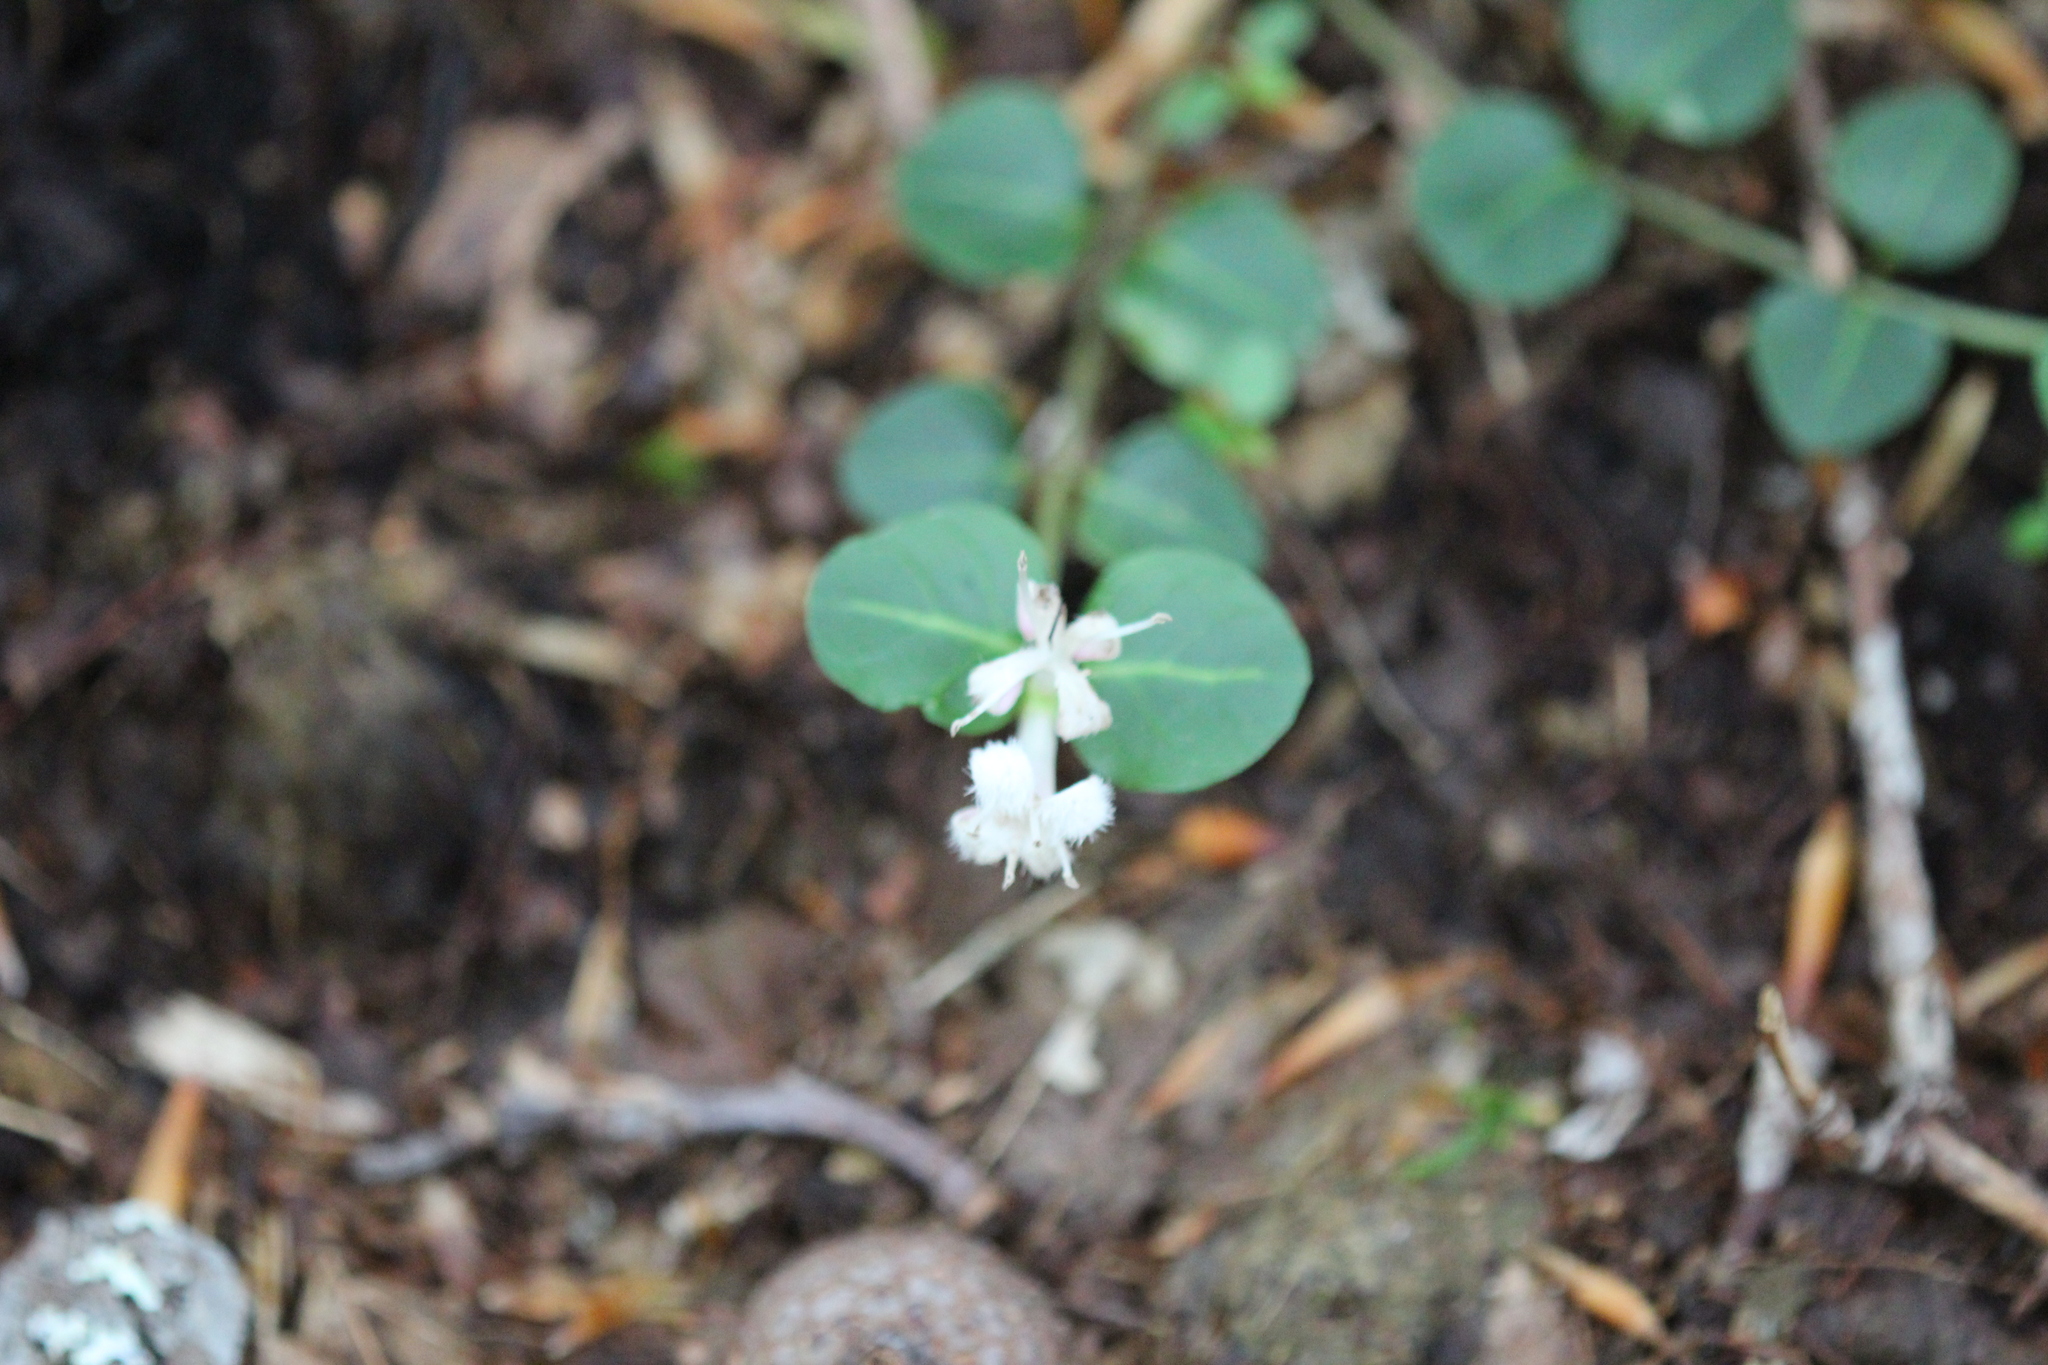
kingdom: Plantae
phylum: Tracheophyta
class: Magnoliopsida
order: Gentianales
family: Rubiaceae
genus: Mitchella
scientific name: Mitchella repens
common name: Partridge-berry
